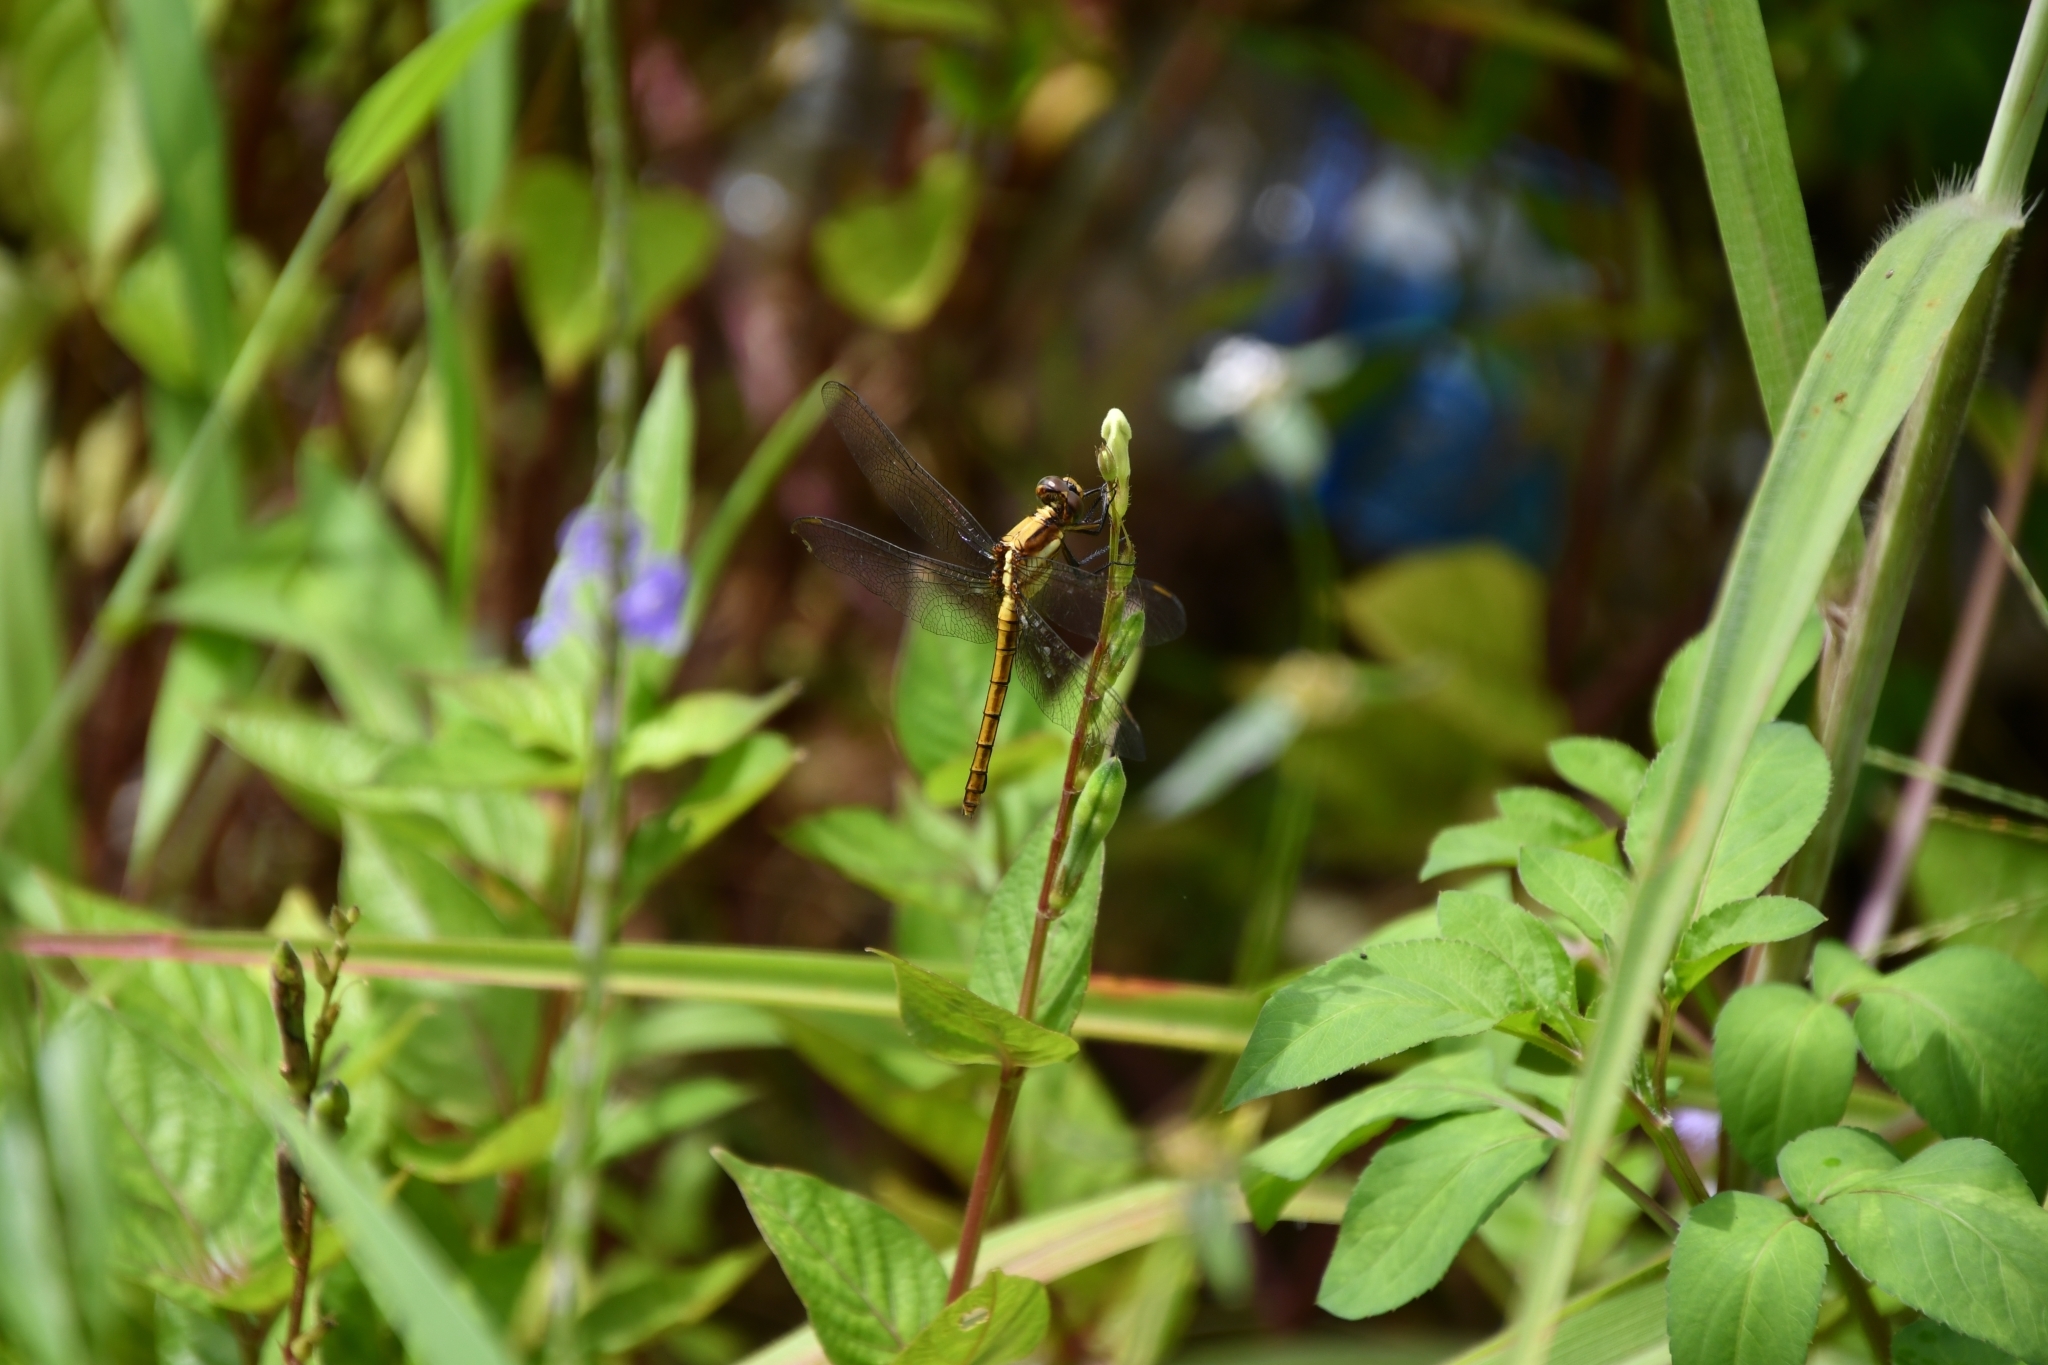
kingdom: Animalia
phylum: Arthropoda
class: Insecta
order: Odonata
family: Libellulidae
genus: Orthetrum
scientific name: Orthetrum glaucum
